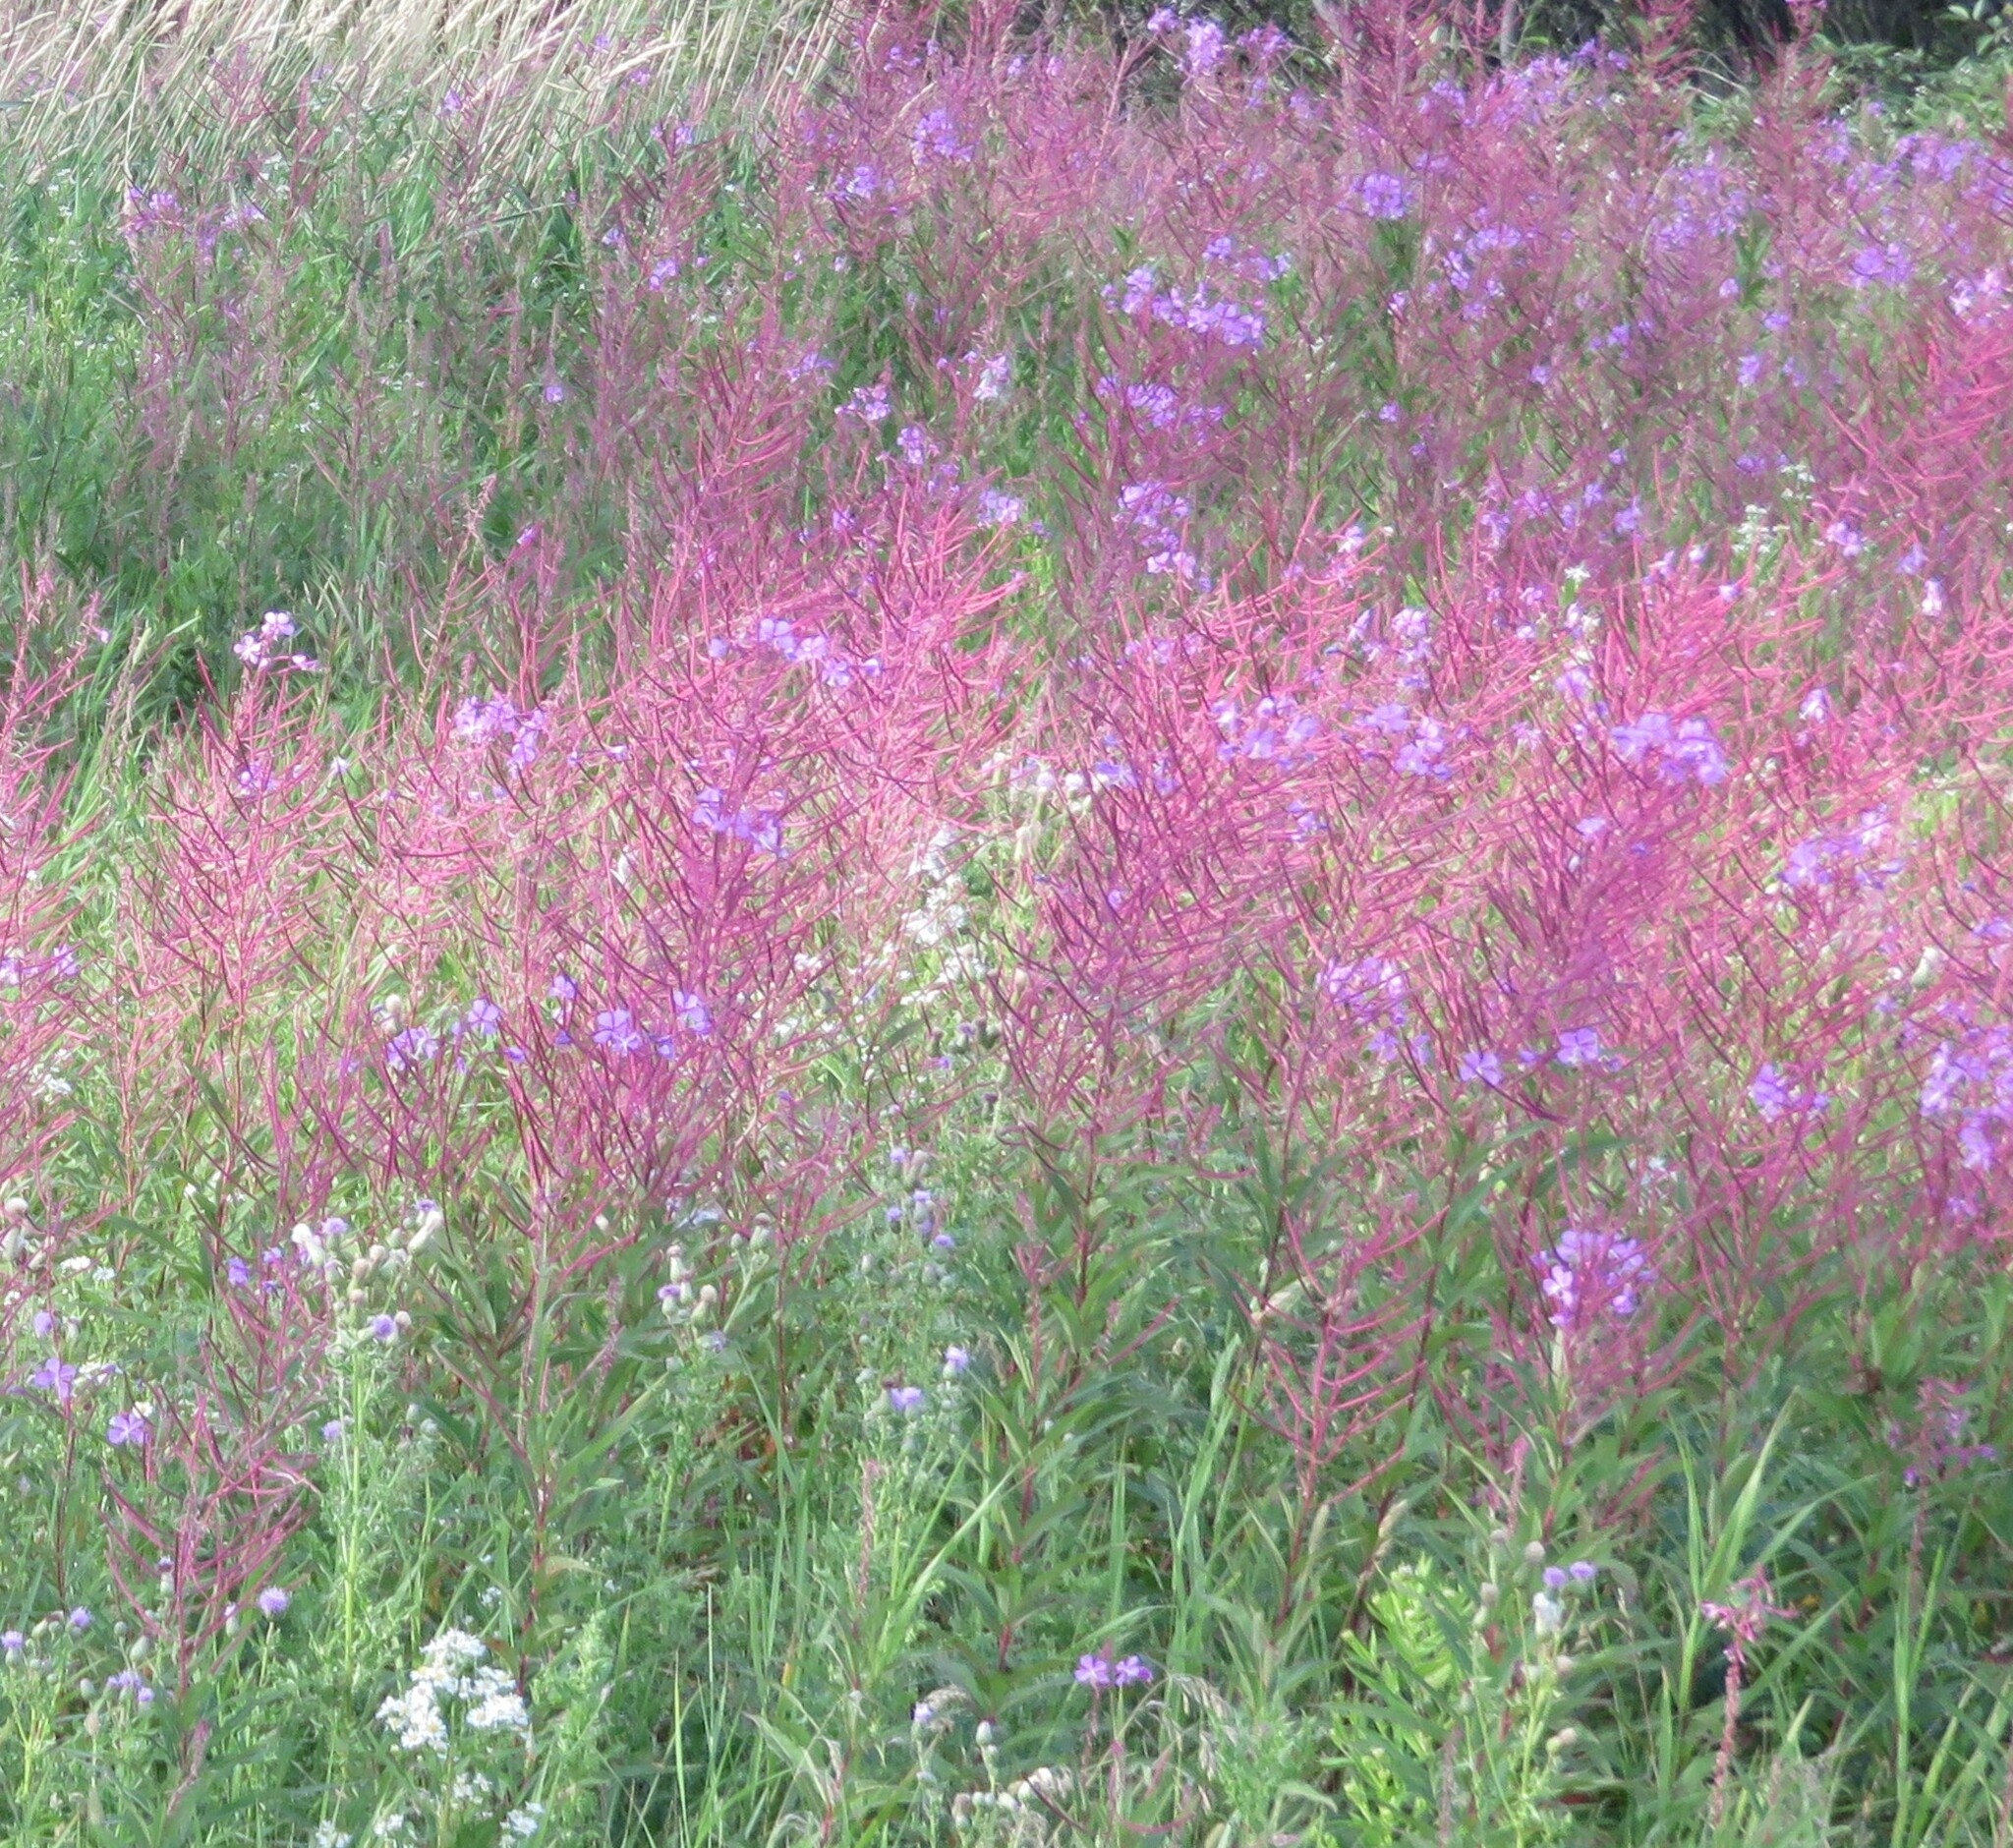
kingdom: Plantae
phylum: Tracheophyta
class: Magnoliopsida
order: Myrtales
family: Onagraceae
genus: Chamaenerion
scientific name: Chamaenerion angustifolium
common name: Fireweed
